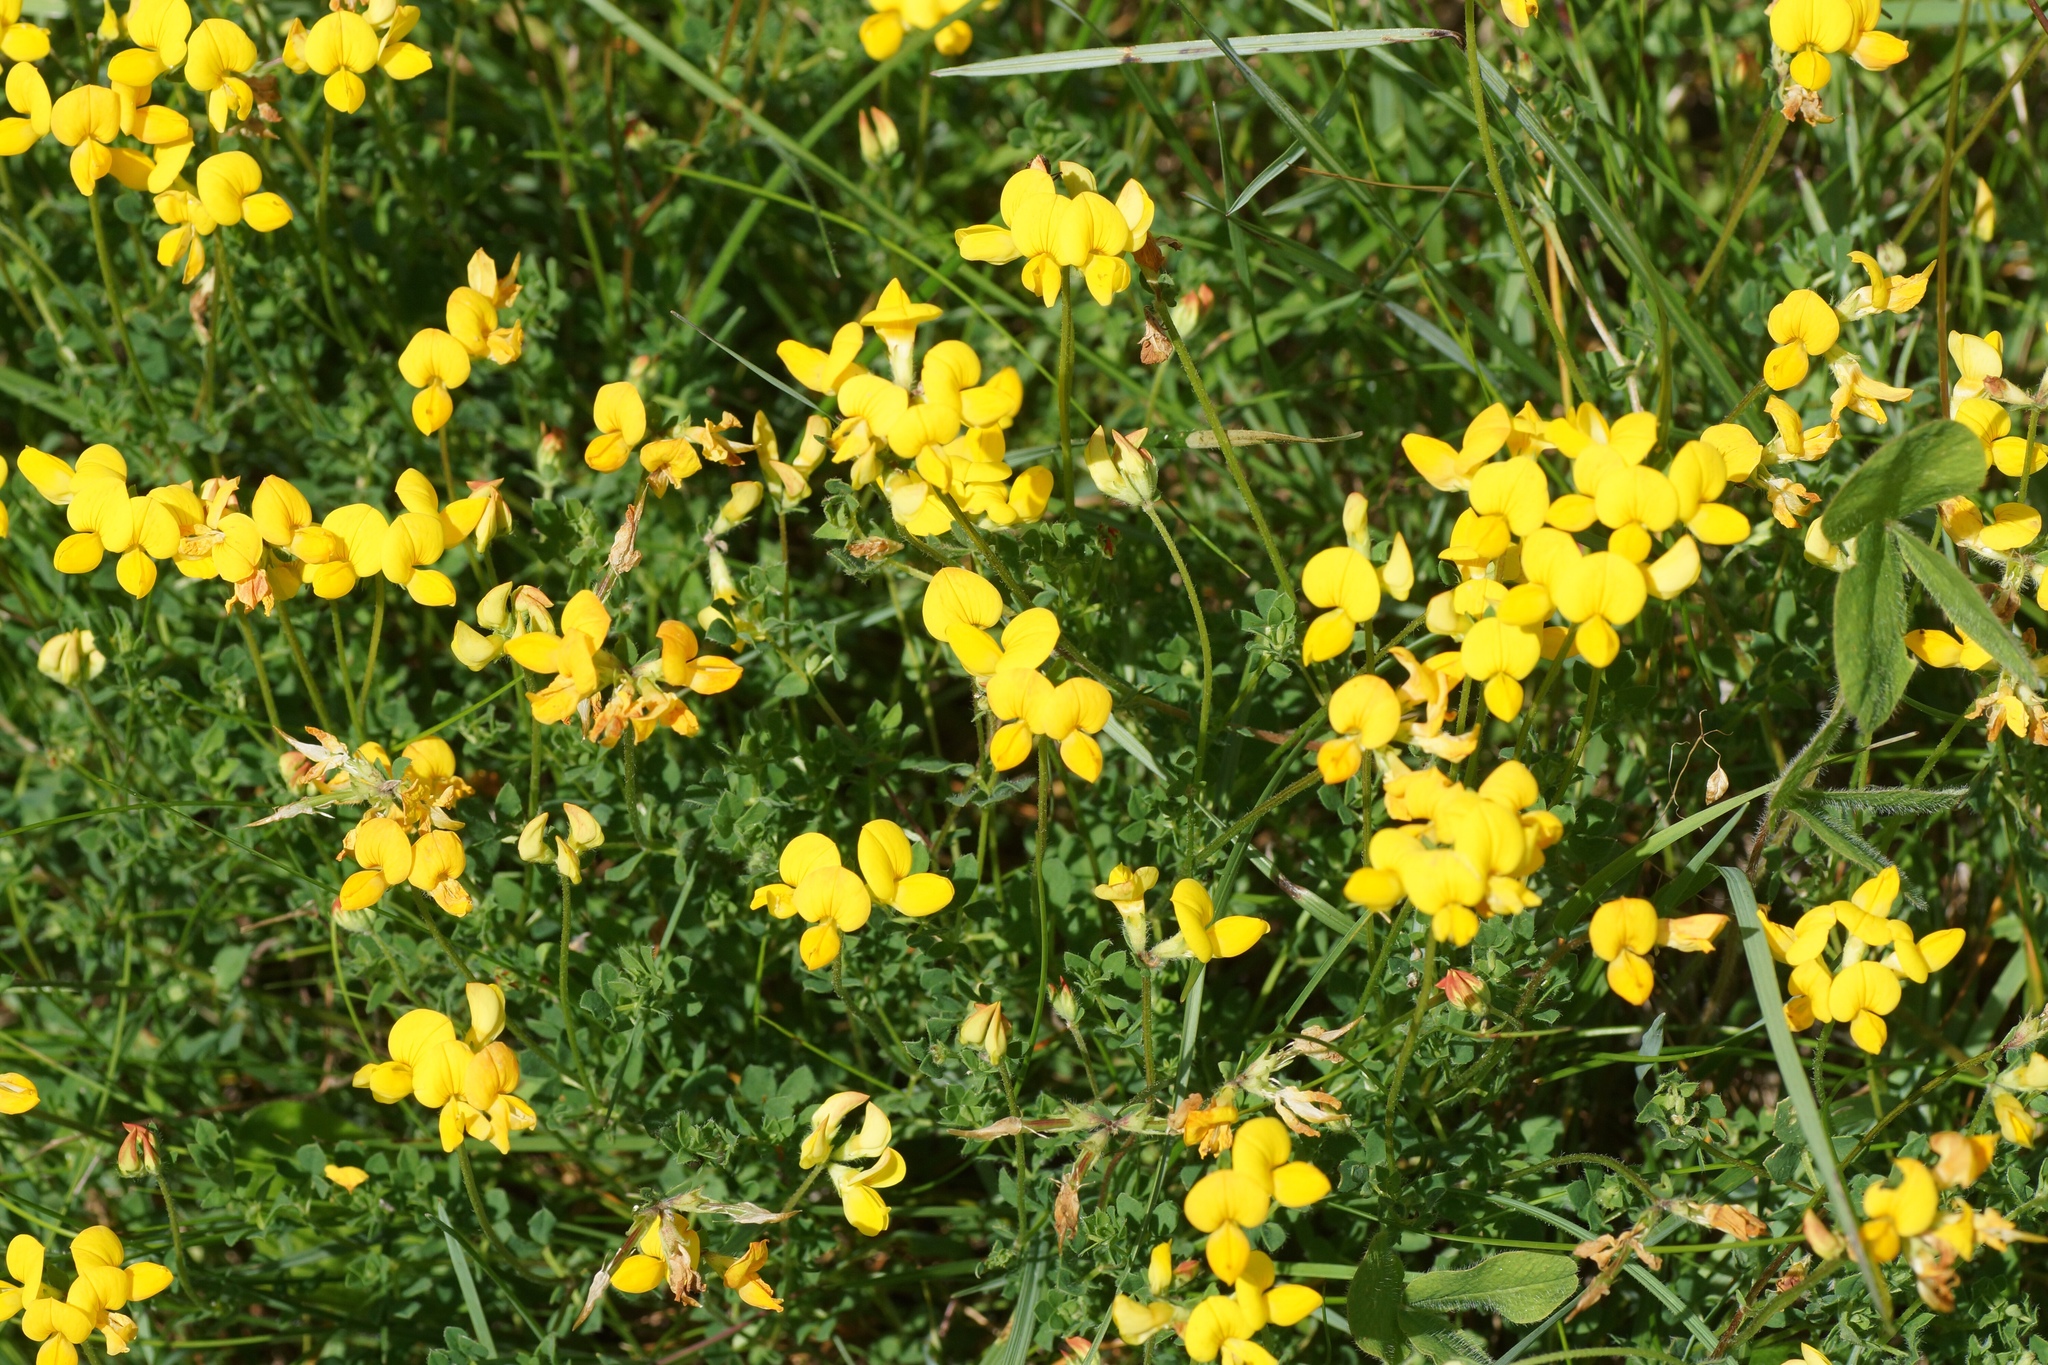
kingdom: Plantae
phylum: Tracheophyta
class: Magnoliopsida
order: Fabales
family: Fabaceae
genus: Lotus
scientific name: Lotus corniculatus
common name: Common bird's-foot-trefoil
